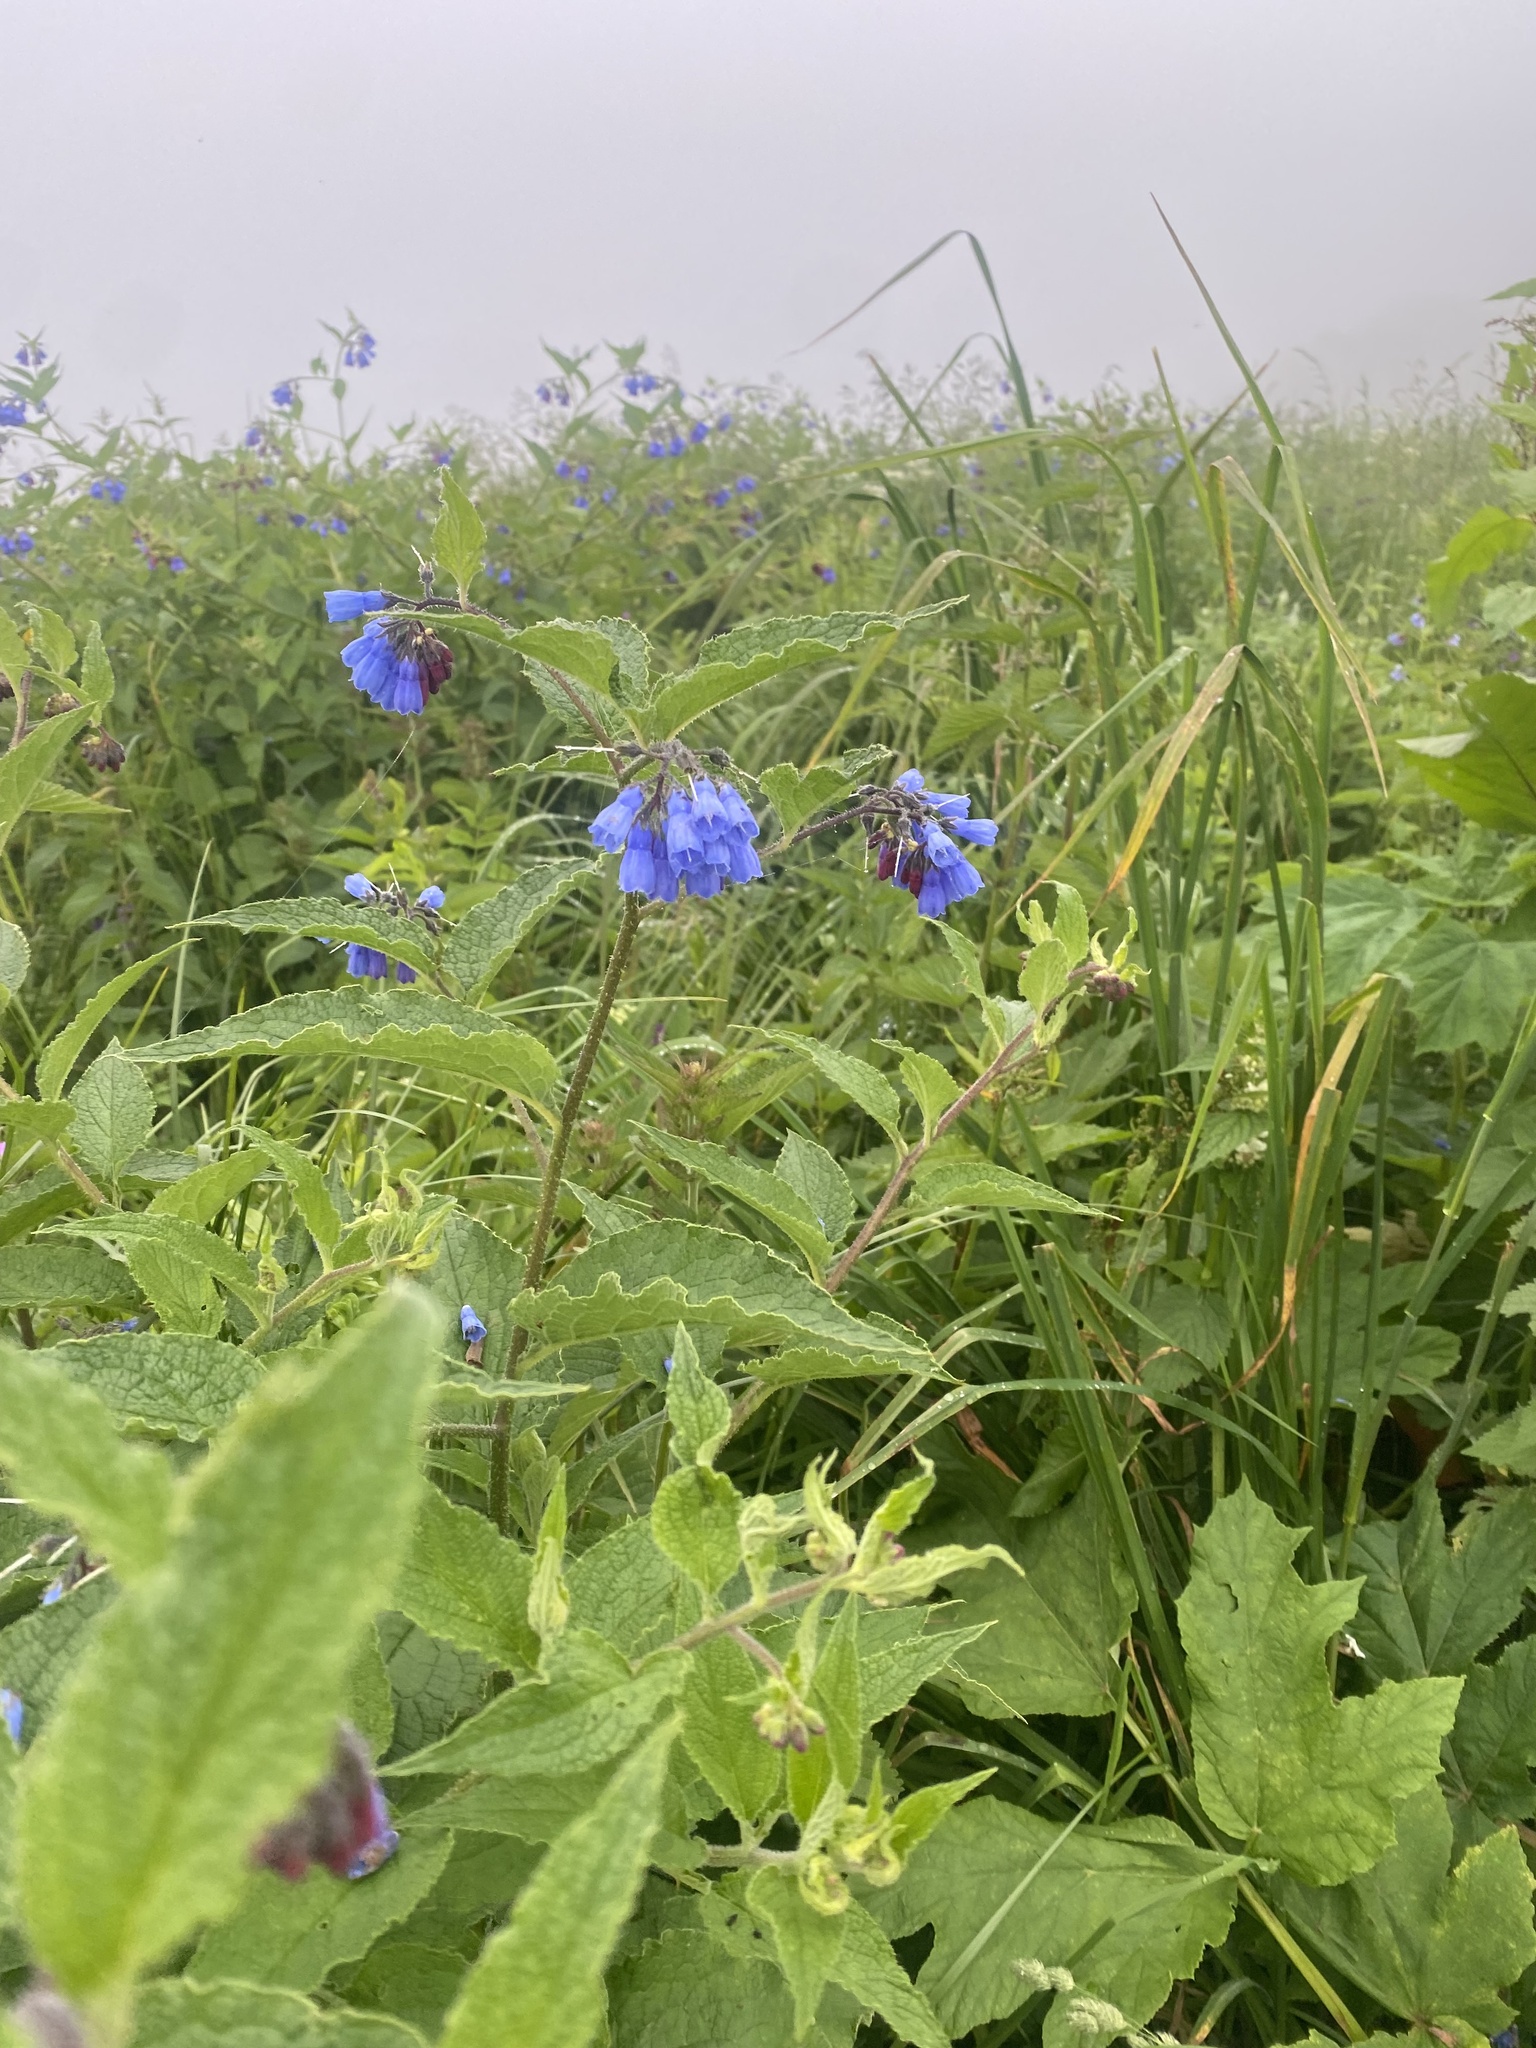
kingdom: Plantae
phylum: Tracheophyta
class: Magnoliopsida
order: Boraginales
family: Boraginaceae
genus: Symphytum
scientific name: Symphytum asperum
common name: Prickly comfrey
